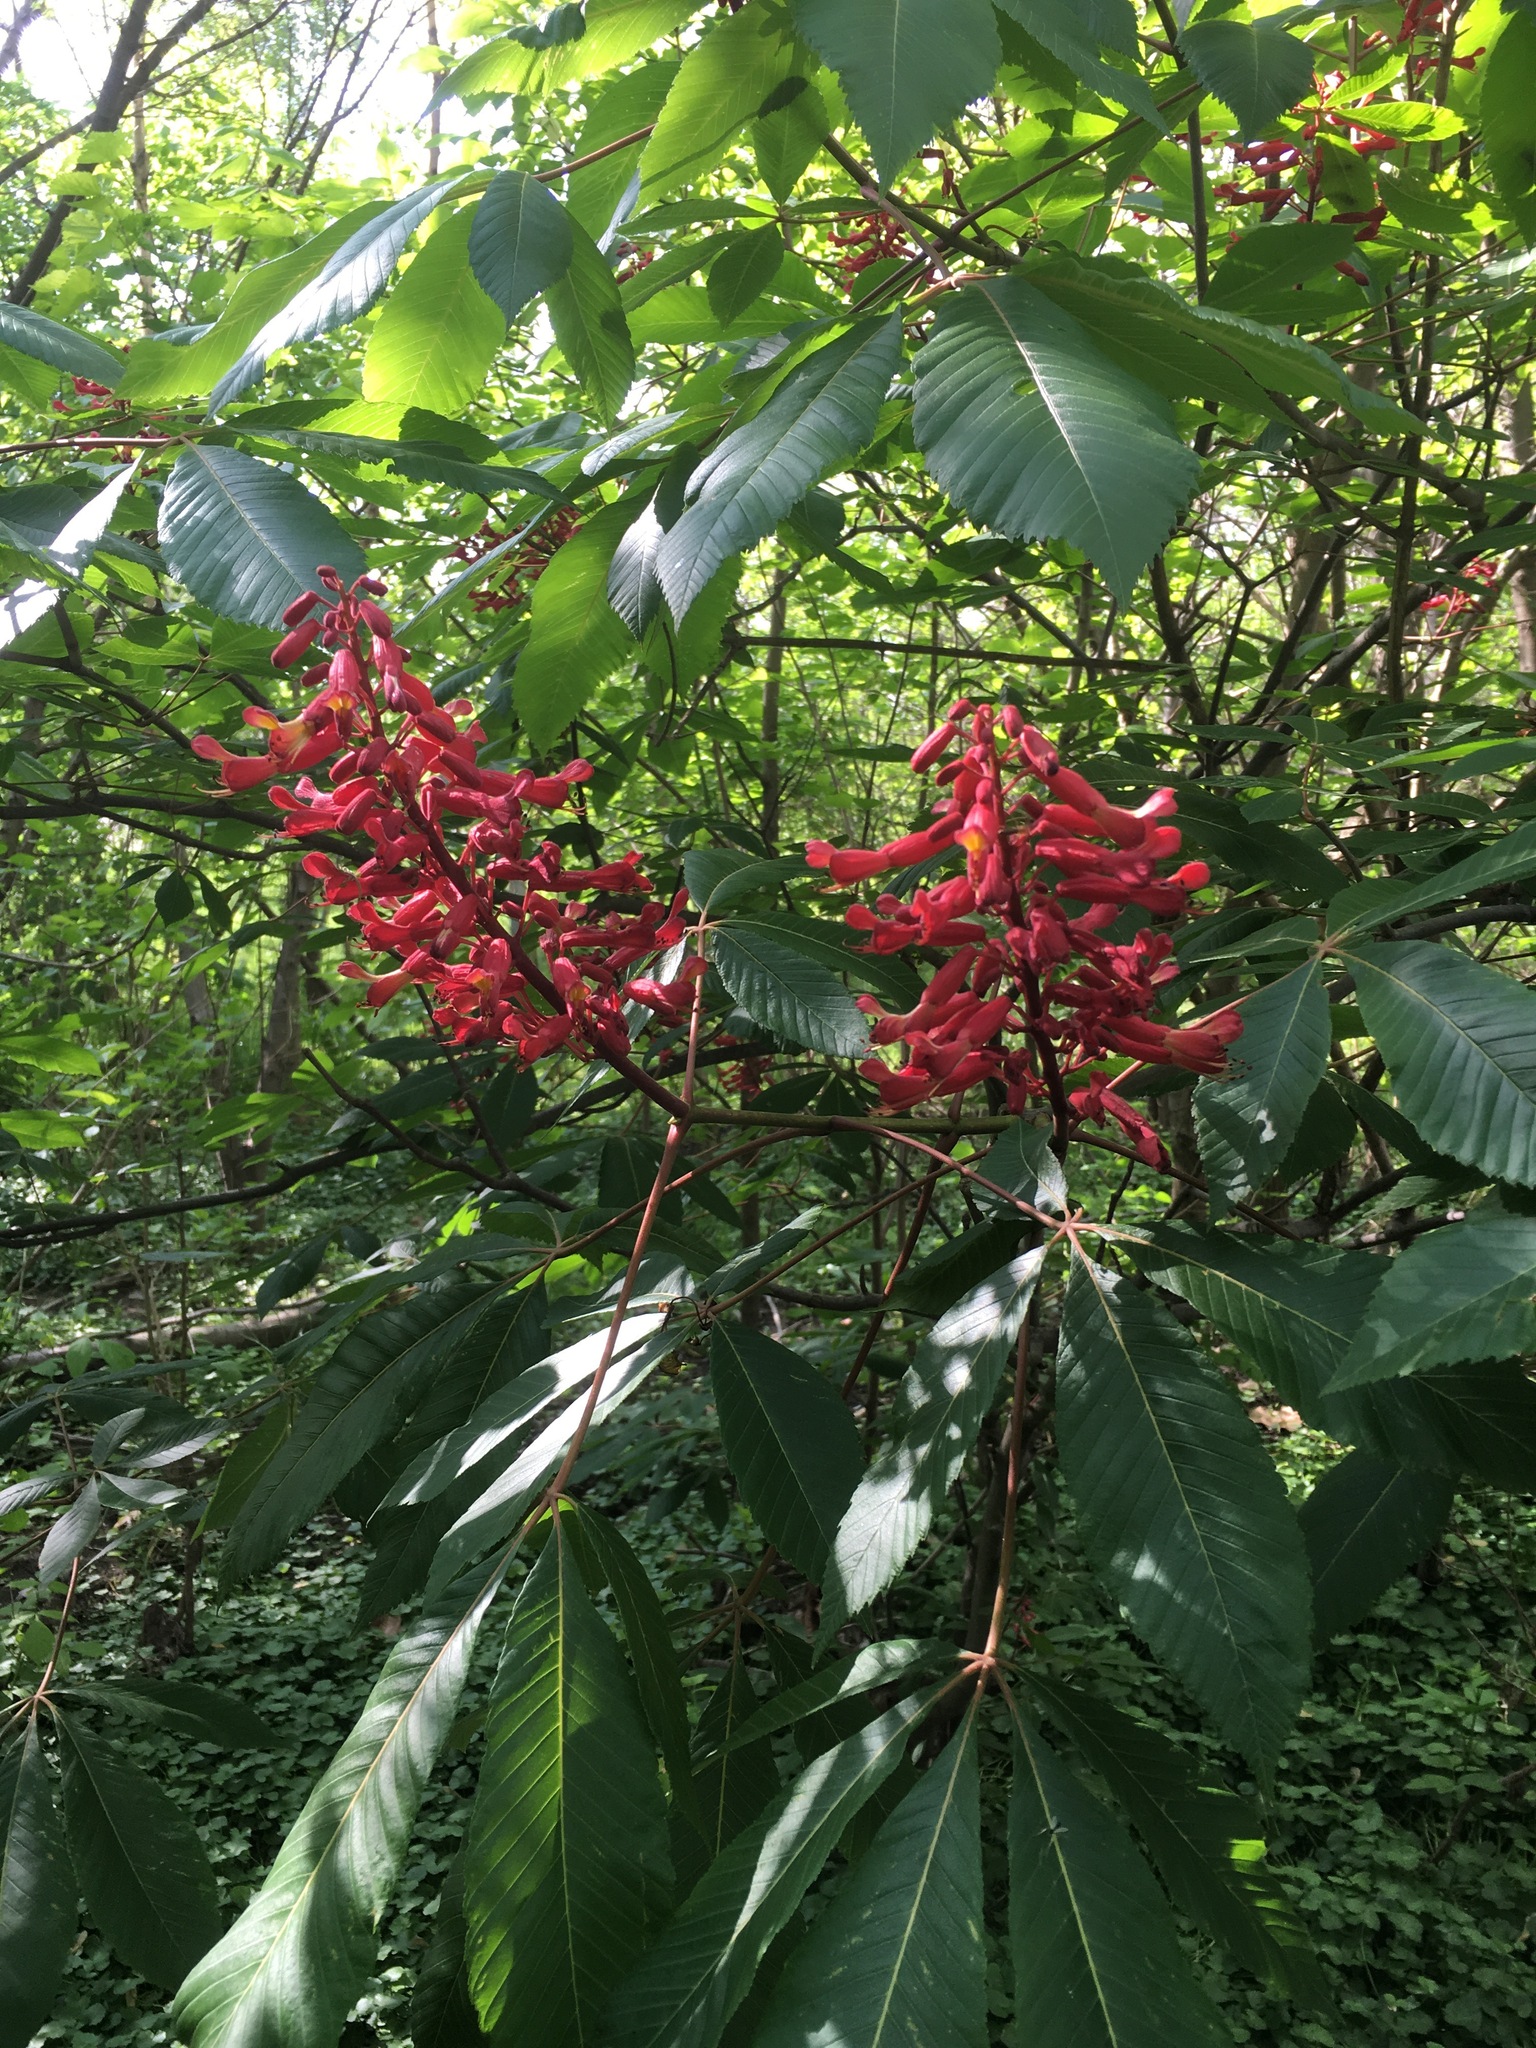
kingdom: Plantae
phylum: Tracheophyta
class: Magnoliopsida
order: Sapindales
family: Sapindaceae
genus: Aesculus
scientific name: Aesculus pavia
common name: Red buckeye
